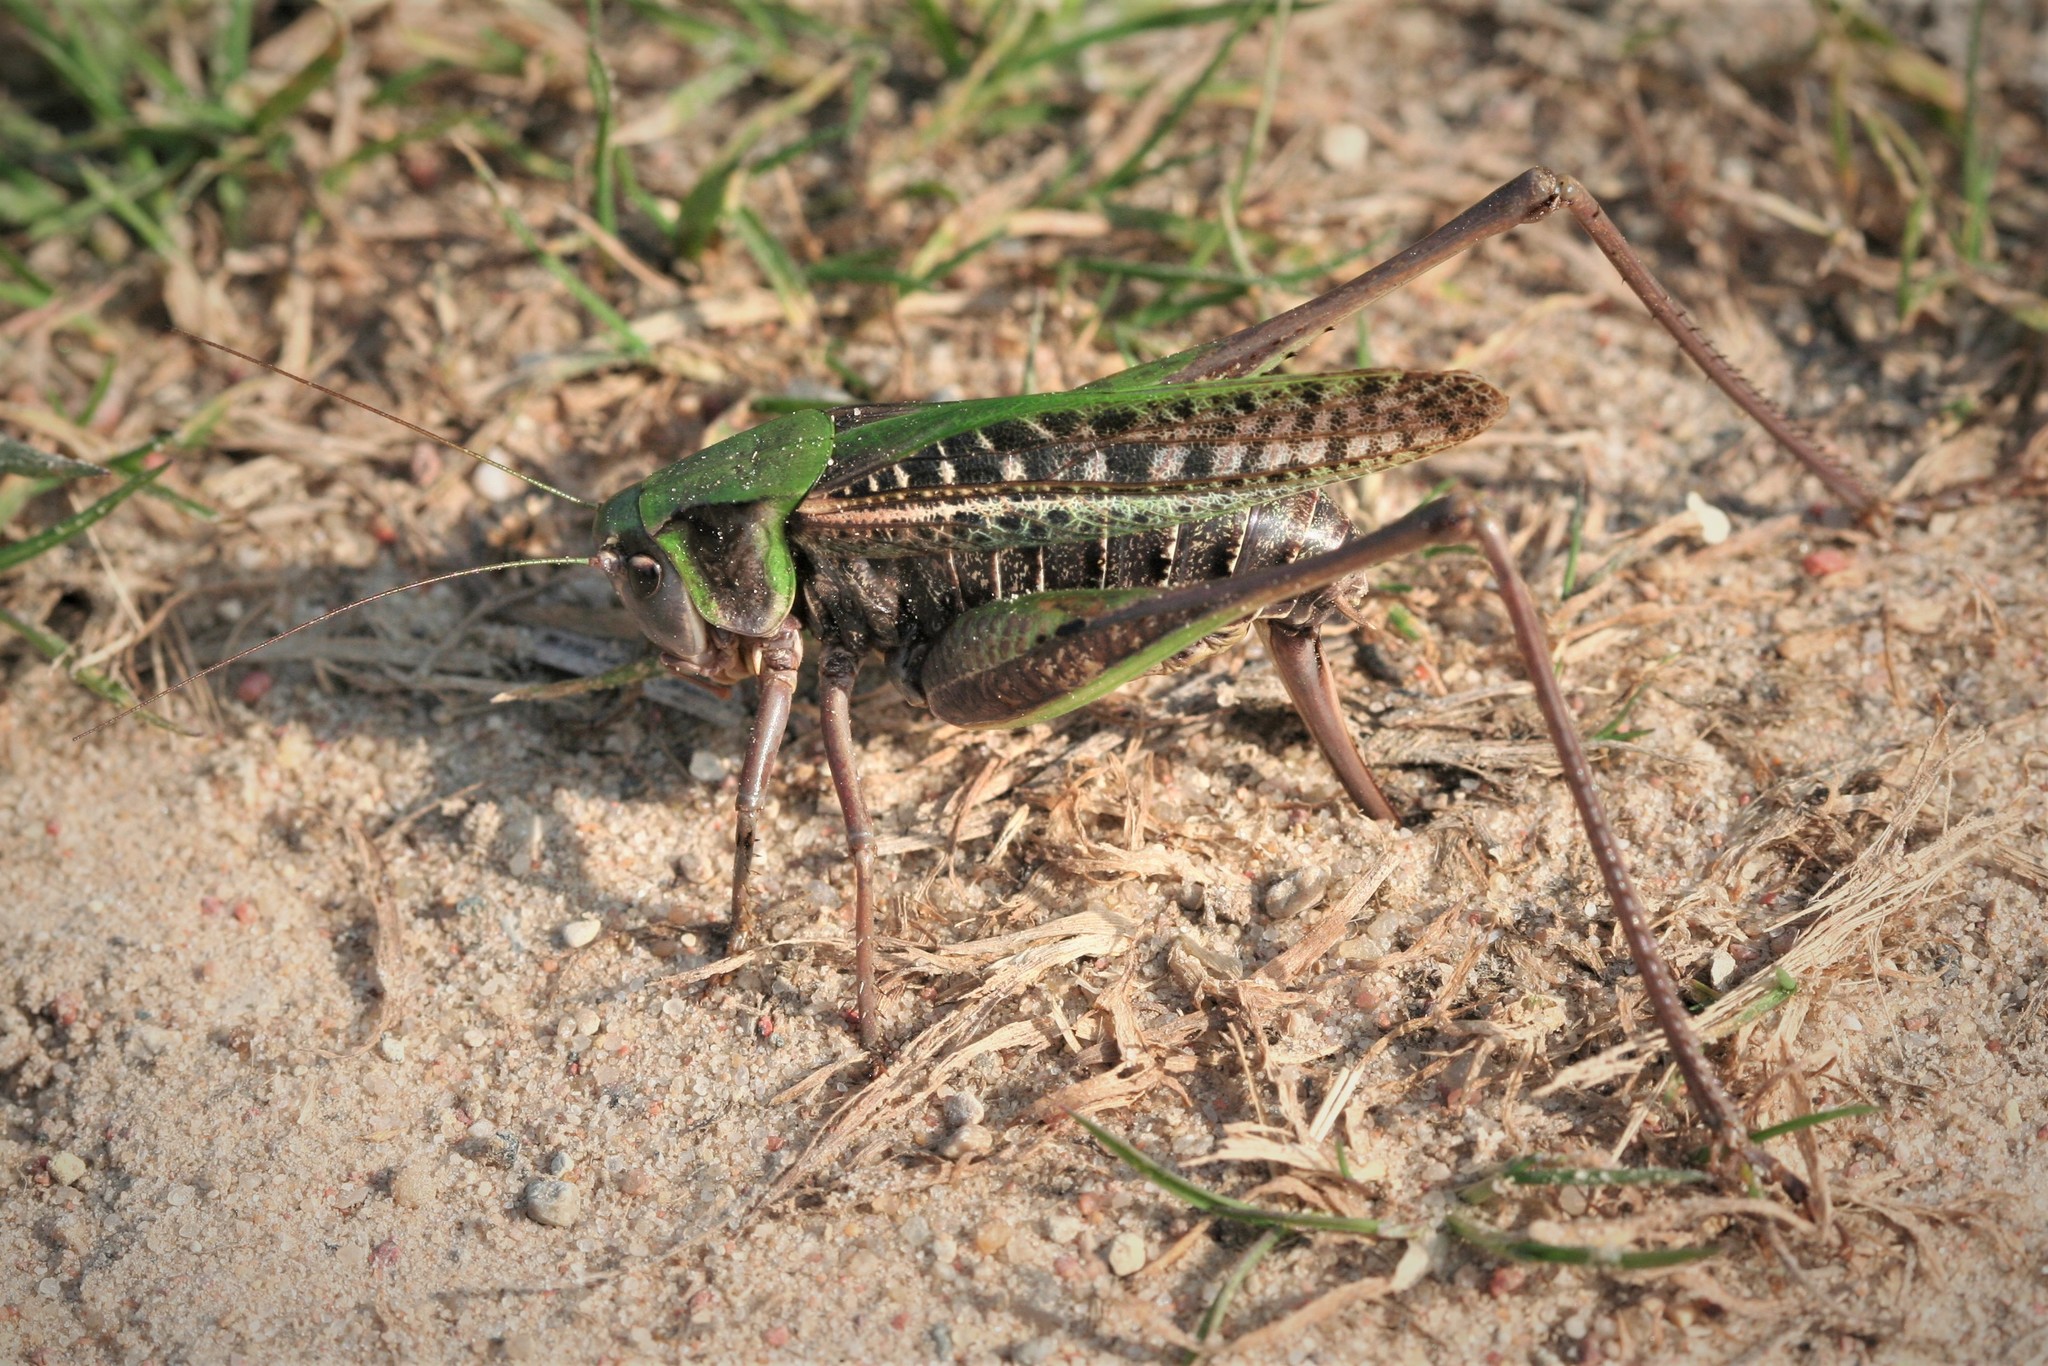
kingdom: Animalia
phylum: Arthropoda
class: Insecta
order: Orthoptera
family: Tettigoniidae
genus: Decticus
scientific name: Decticus verrucivorus
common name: Wart-biter
